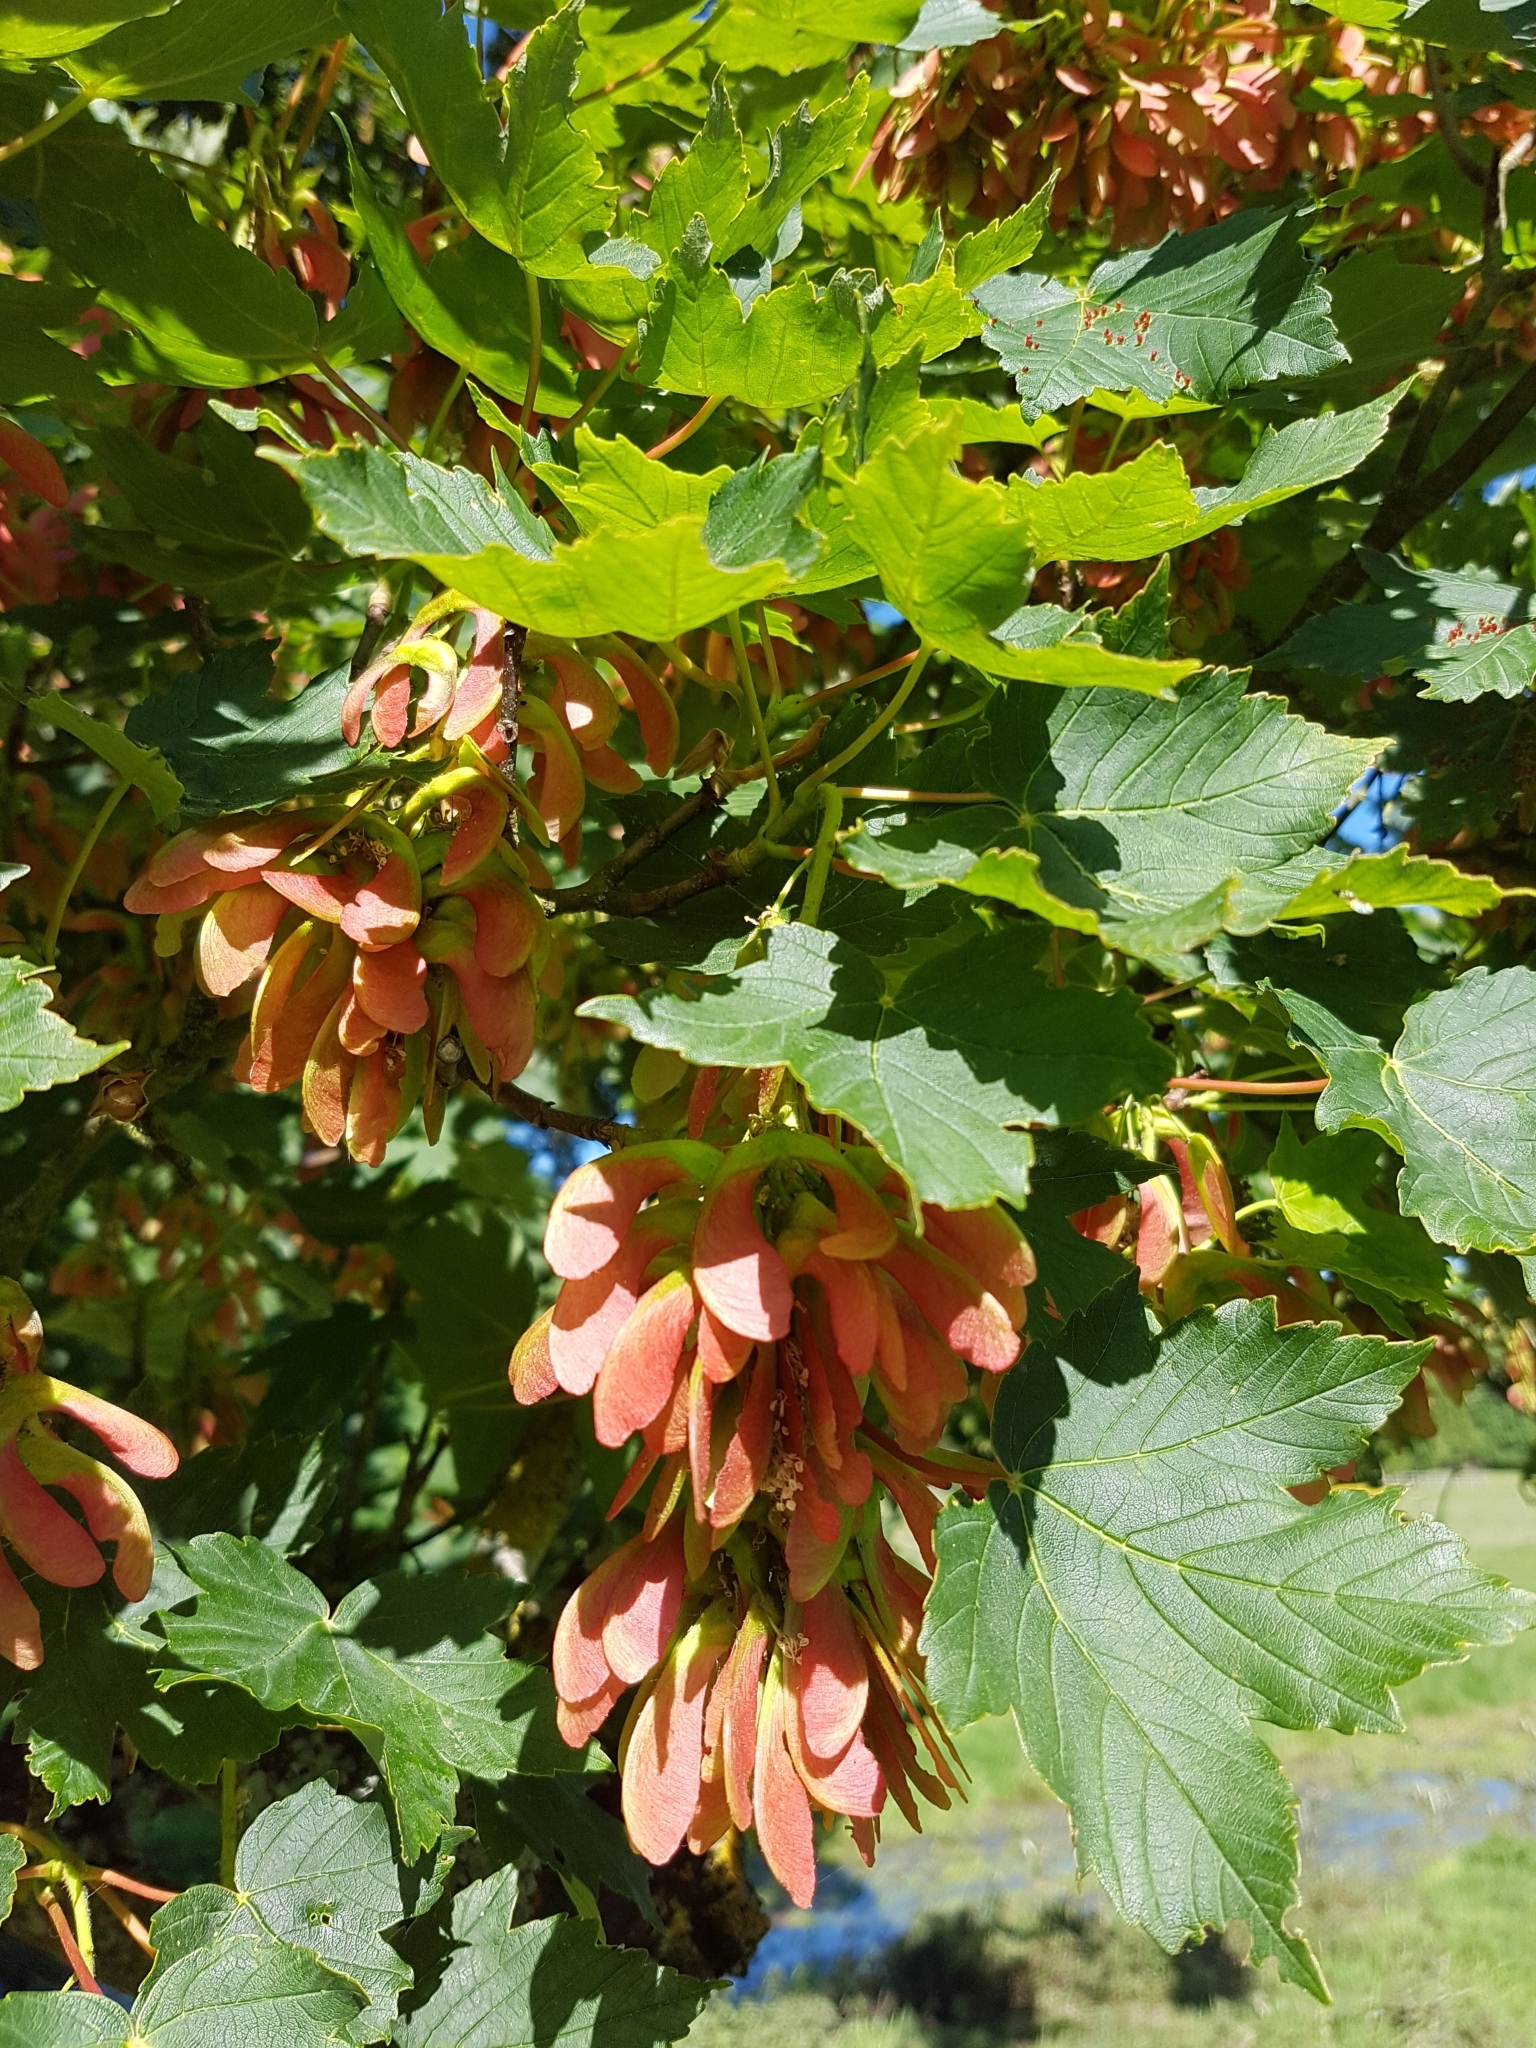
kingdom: Plantae
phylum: Tracheophyta
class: Magnoliopsida
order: Sapindales
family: Sapindaceae
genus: Acer
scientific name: Acer pseudoplatanus
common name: Sycamore
